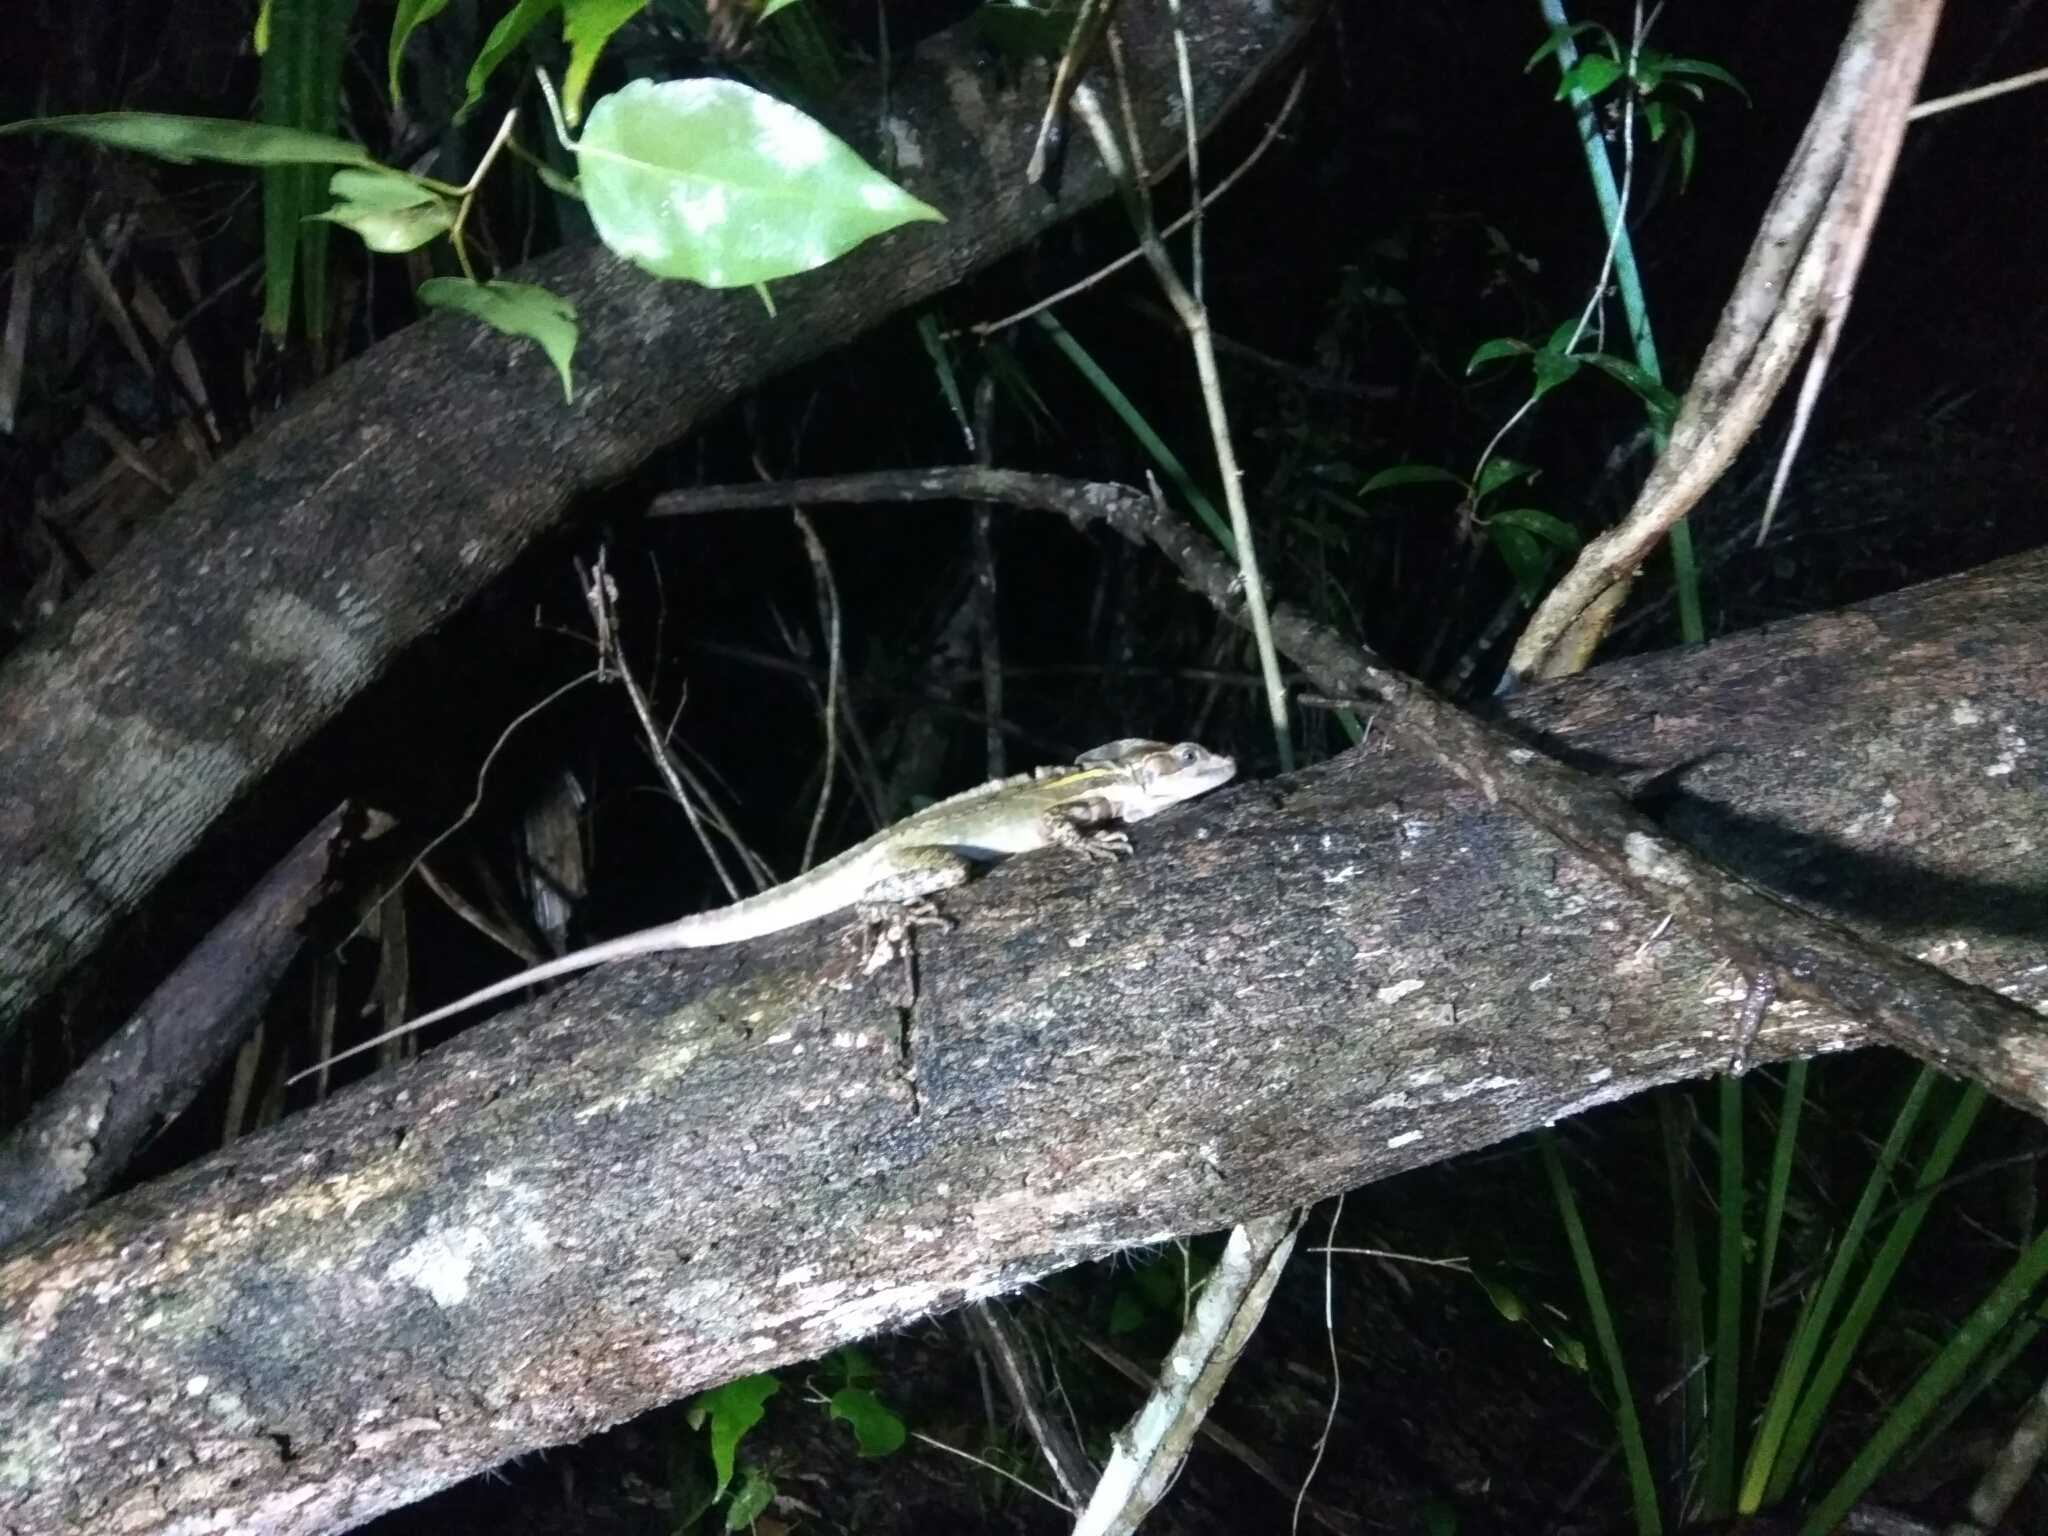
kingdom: Animalia
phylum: Chordata
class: Squamata
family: Corytophanidae
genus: Basiliscus
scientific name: Basiliscus vittatus
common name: Brown basilisk
